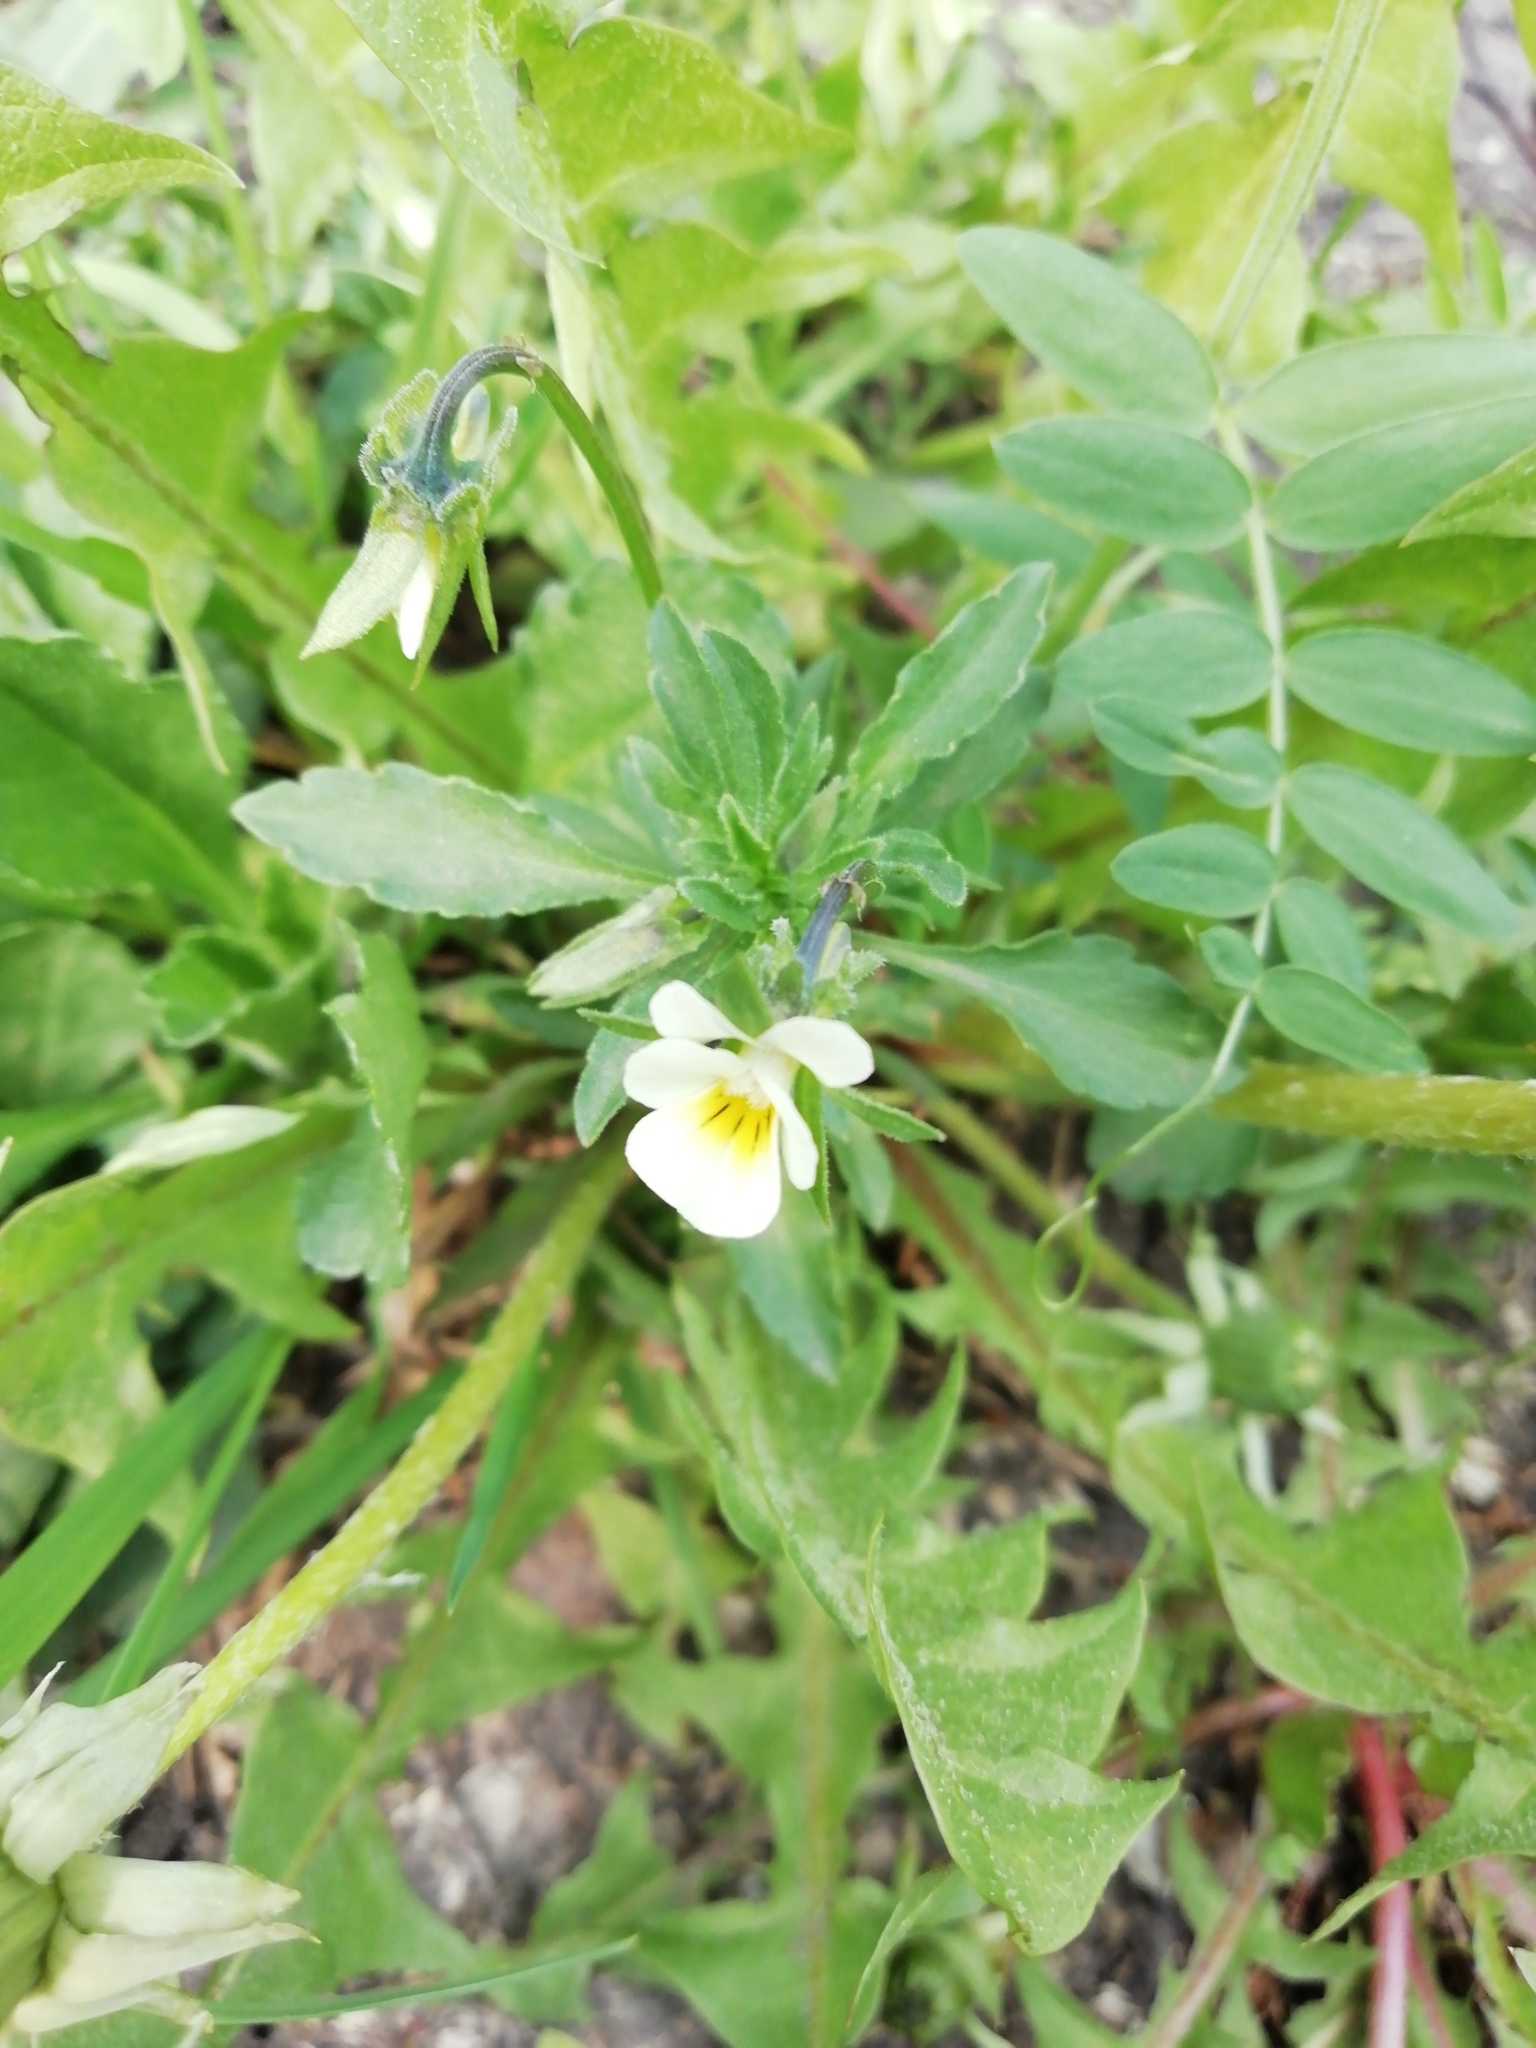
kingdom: Plantae
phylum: Tracheophyta
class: Magnoliopsida
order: Malpighiales
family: Violaceae
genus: Viola
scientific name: Viola arvensis
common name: Field pansy
